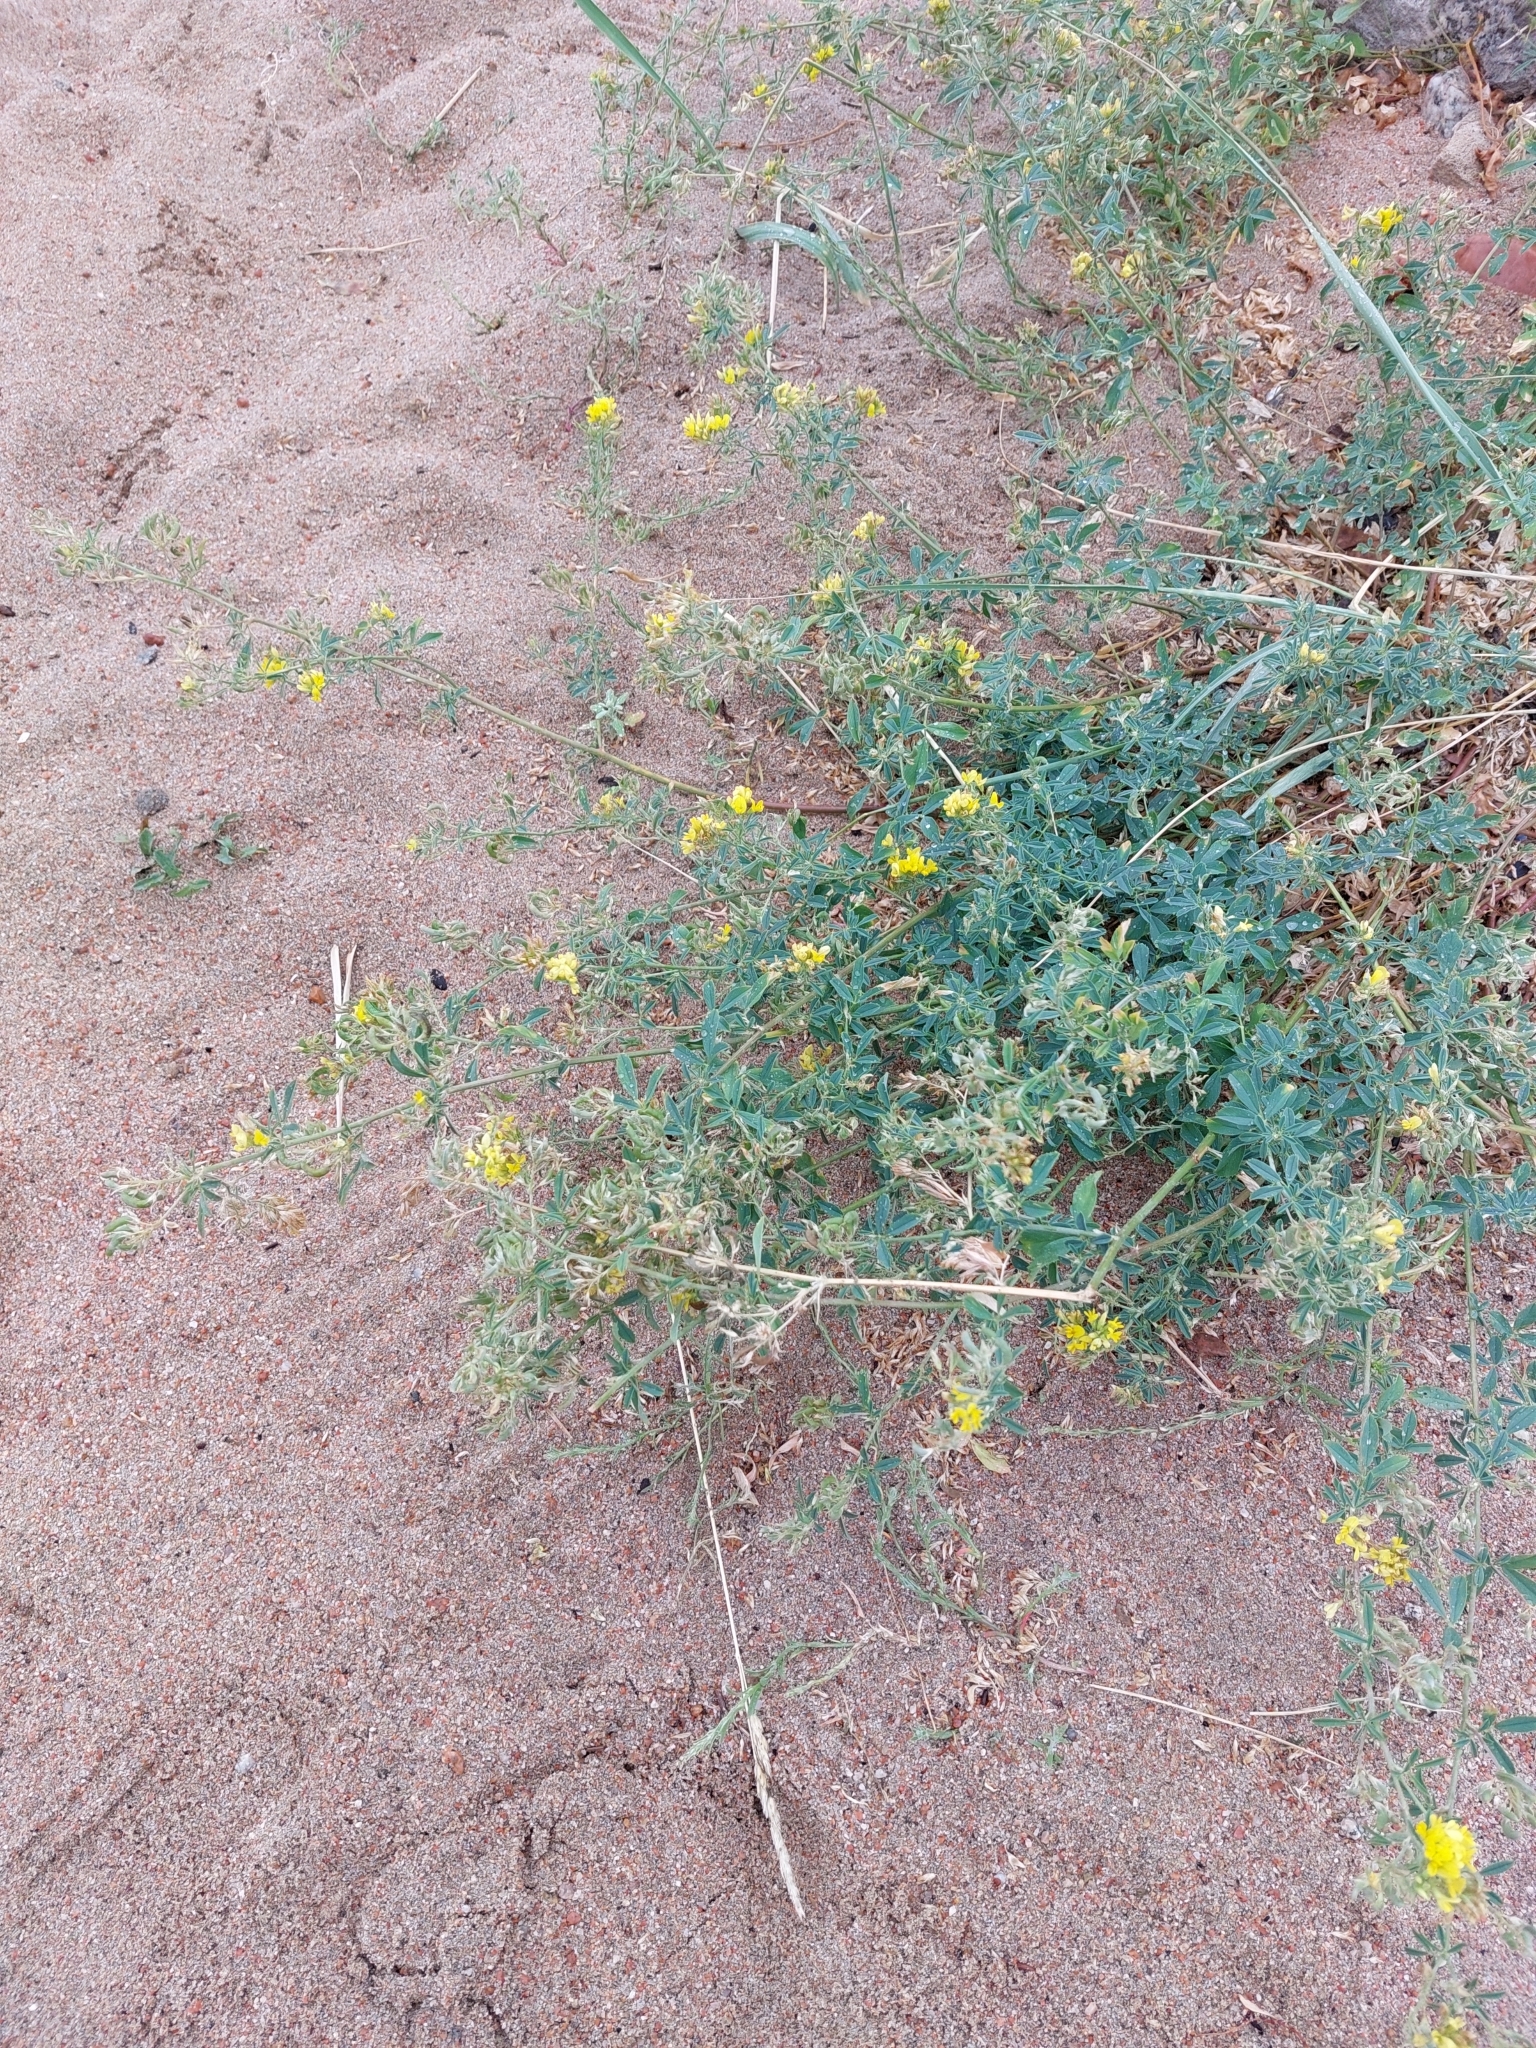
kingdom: Plantae
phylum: Tracheophyta
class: Magnoliopsida
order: Fabales
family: Fabaceae
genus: Medicago
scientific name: Medicago falcata
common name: Sickle medick
